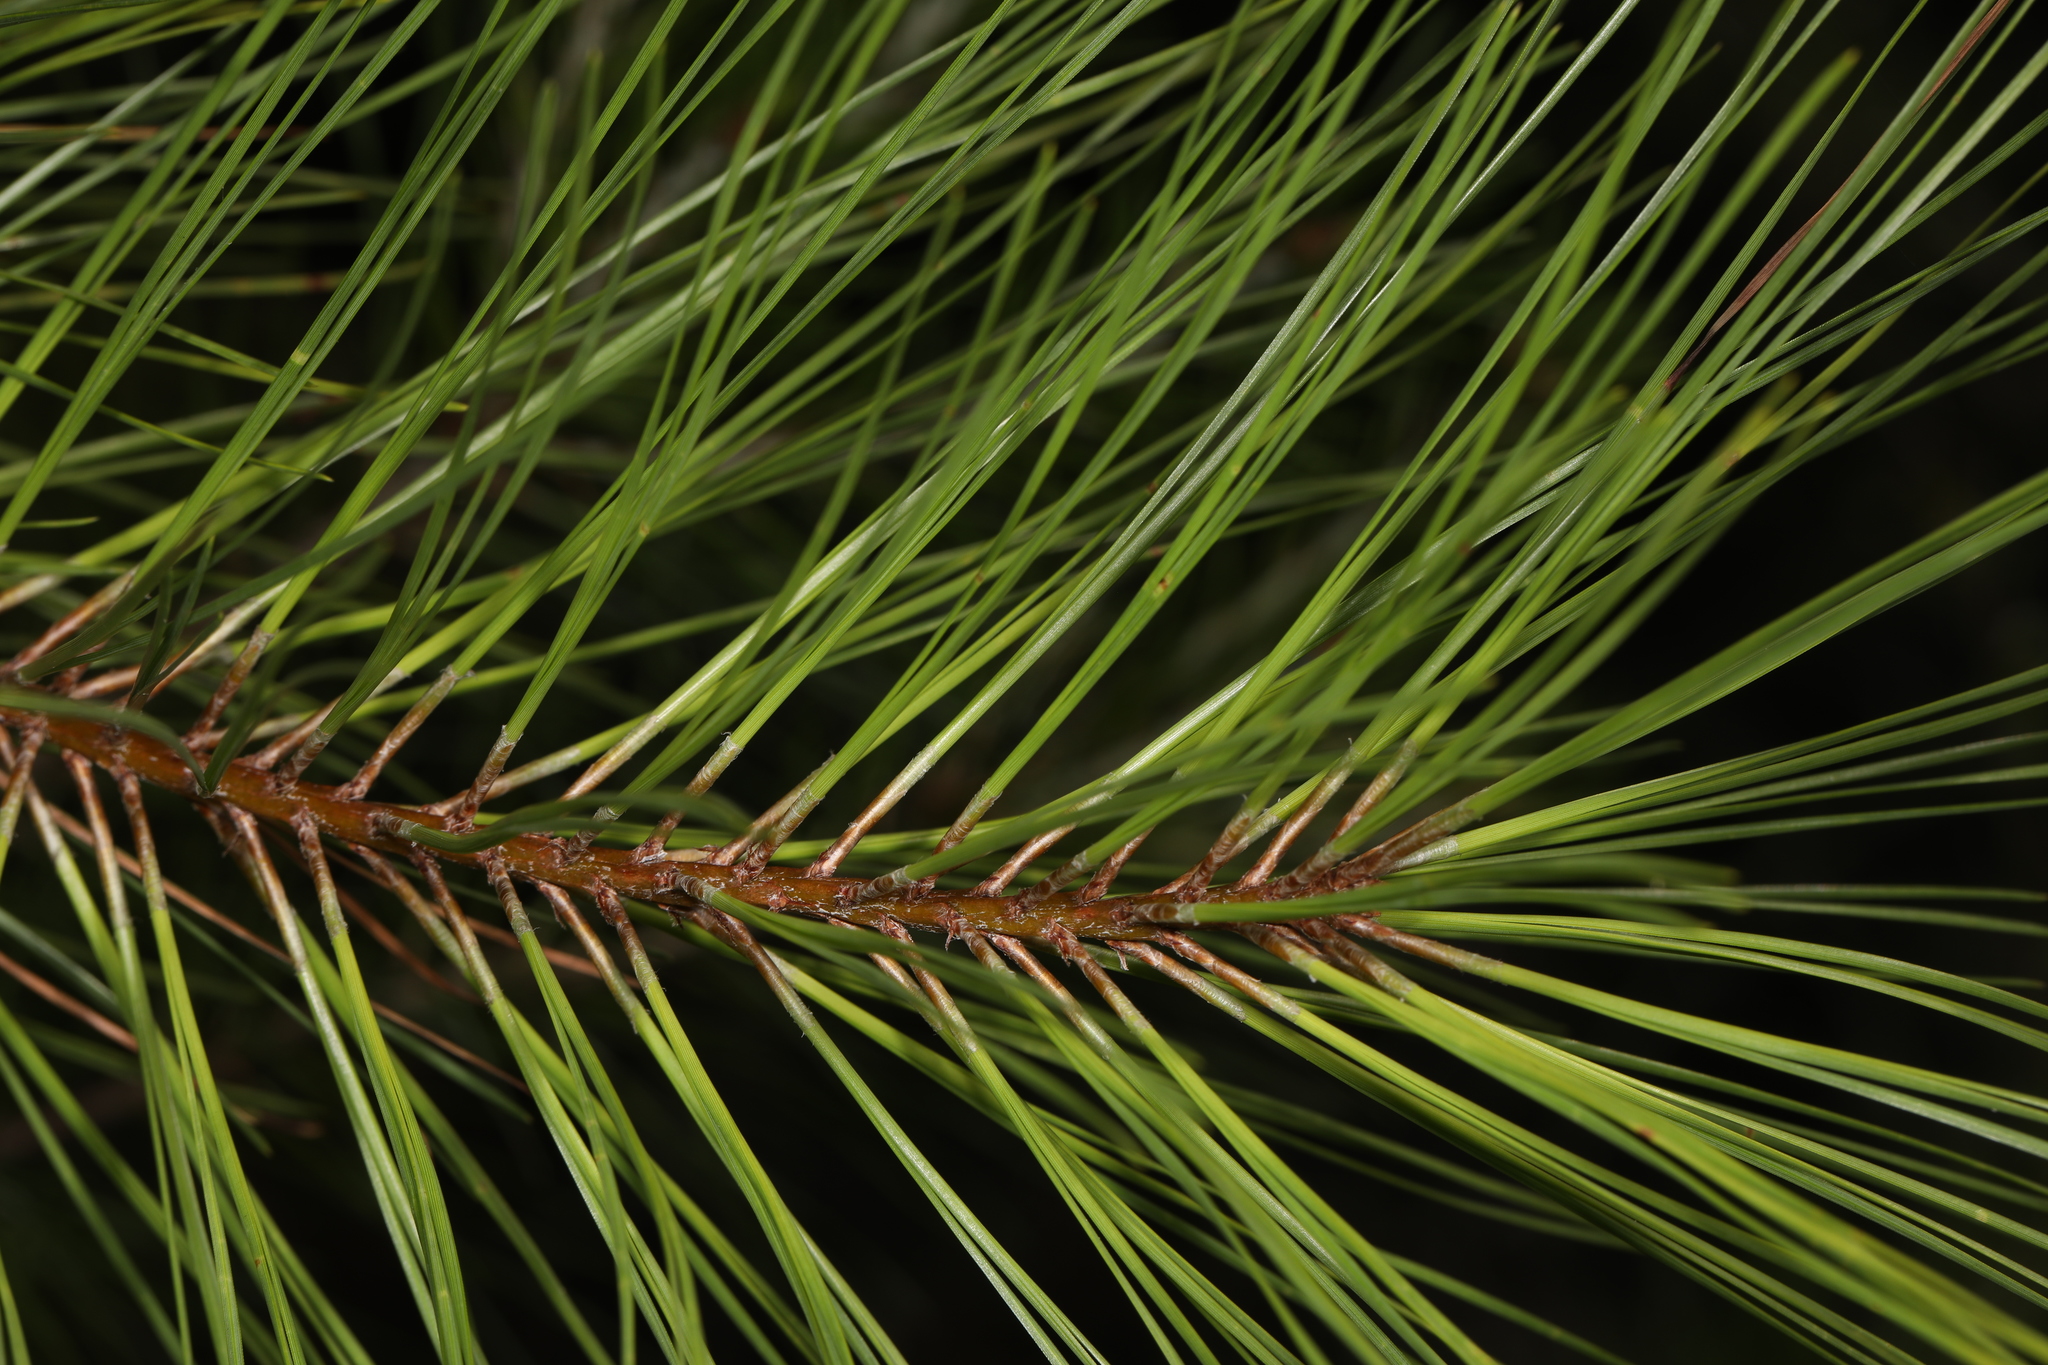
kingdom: Plantae
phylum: Tracheophyta
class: Pinopsida
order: Pinales
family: Pinaceae
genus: Pinus
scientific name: Pinus taeda
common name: Loblolly pine
